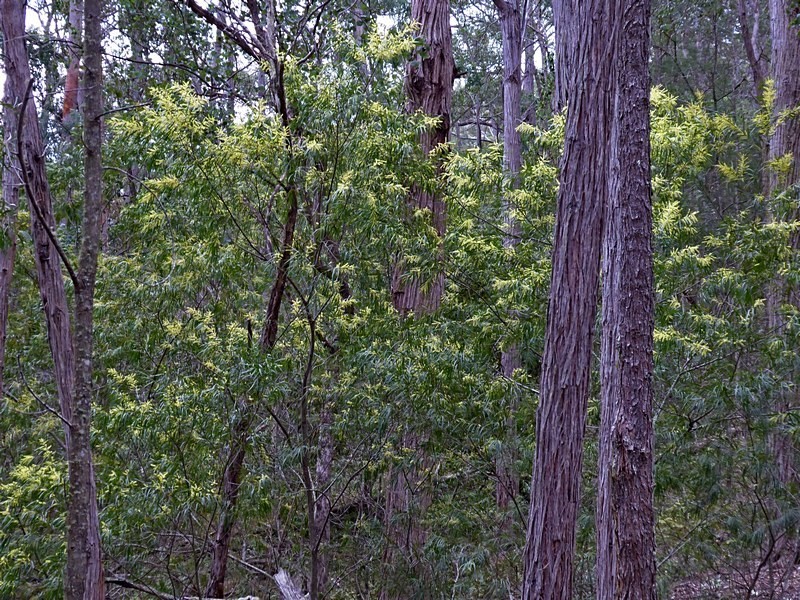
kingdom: Plantae
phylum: Tracheophyta
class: Magnoliopsida
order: Fabales
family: Fabaceae
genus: Acacia
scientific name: Acacia floribunda
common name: Gossamer wattle
